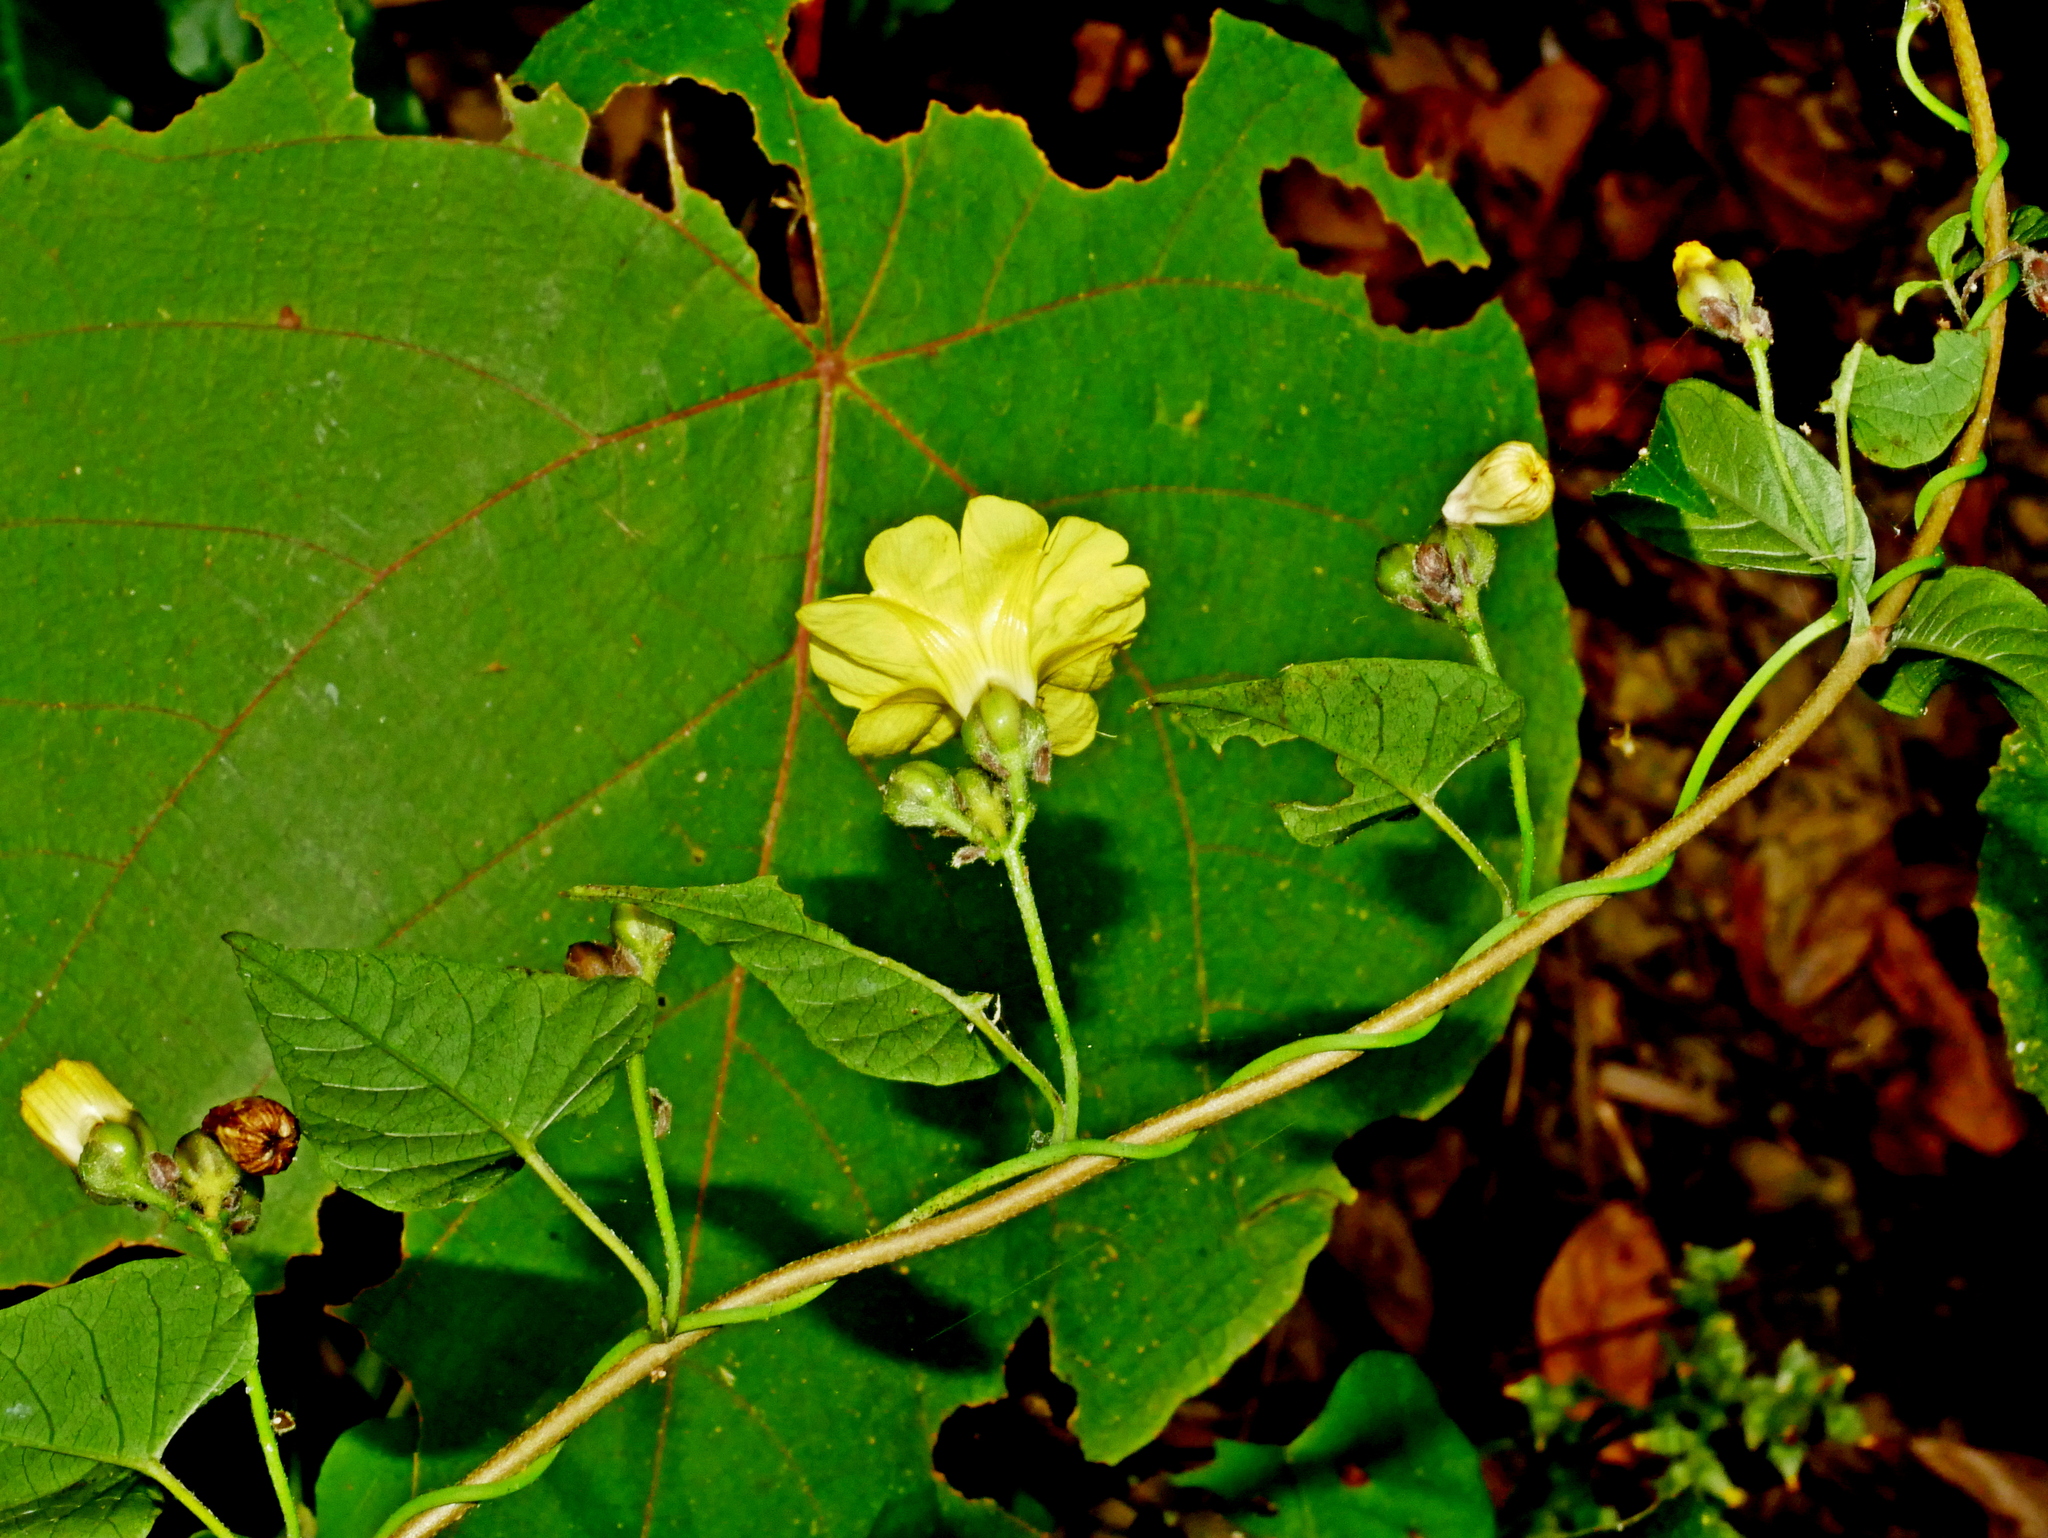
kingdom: Plantae
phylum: Tracheophyta
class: Magnoliopsida
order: Solanales
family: Convolvulaceae
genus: Merremia
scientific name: Merremia gemella
